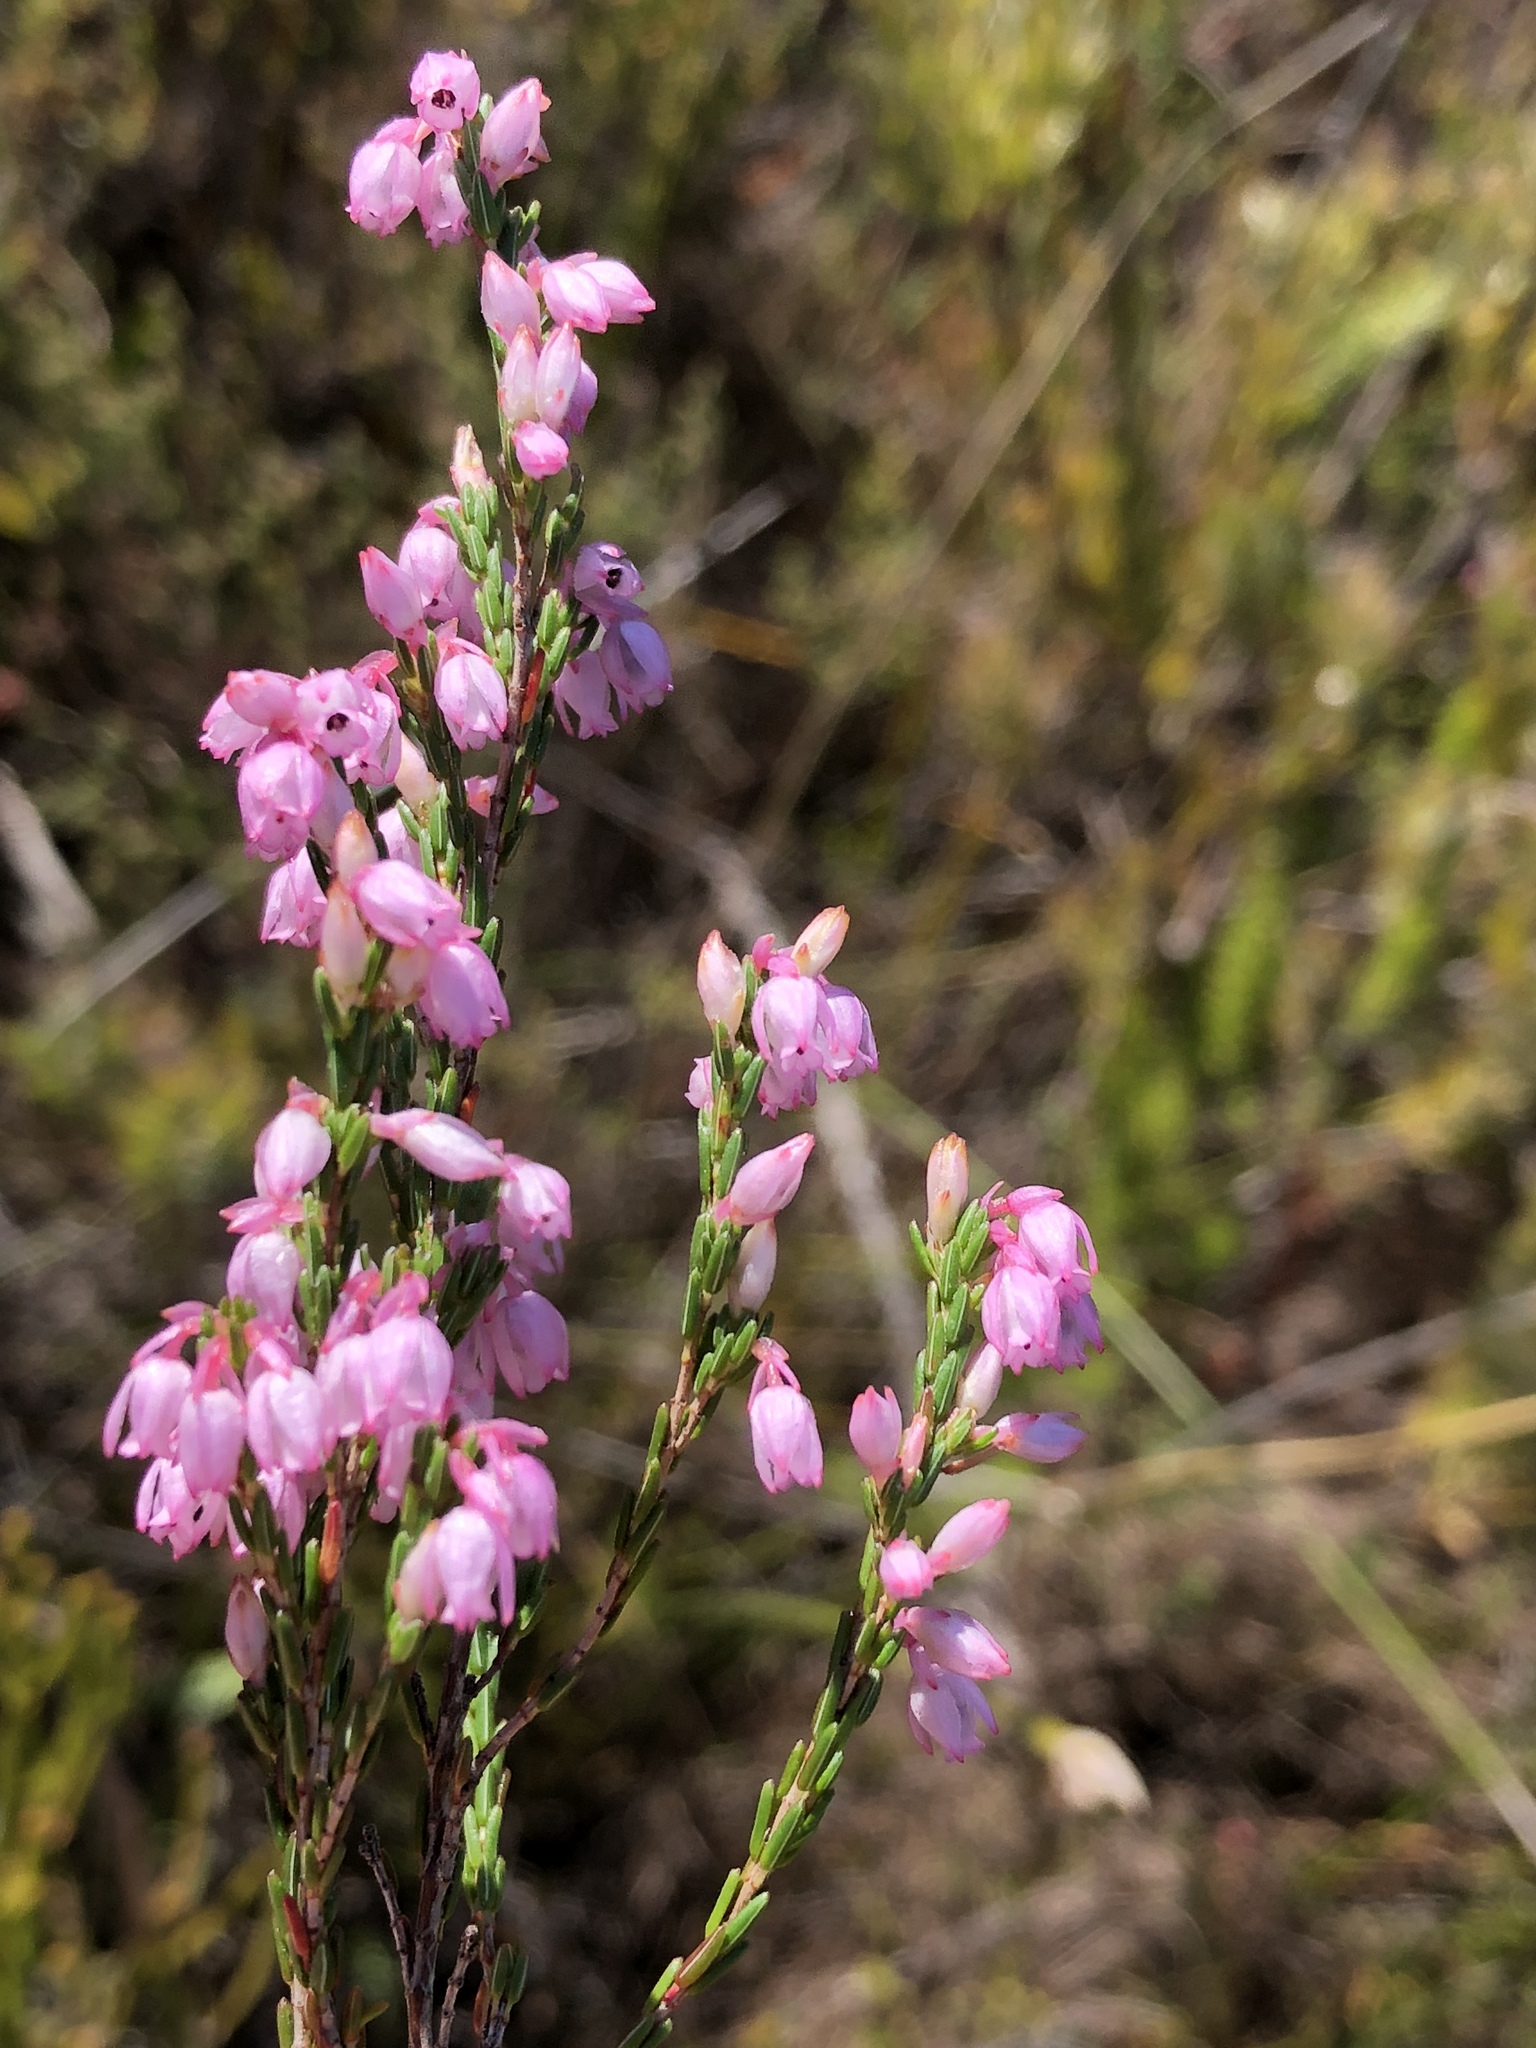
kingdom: Plantae
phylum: Tracheophyta
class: Magnoliopsida
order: Ericales
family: Ericaceae
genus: Erica
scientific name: Erica palliiflora
